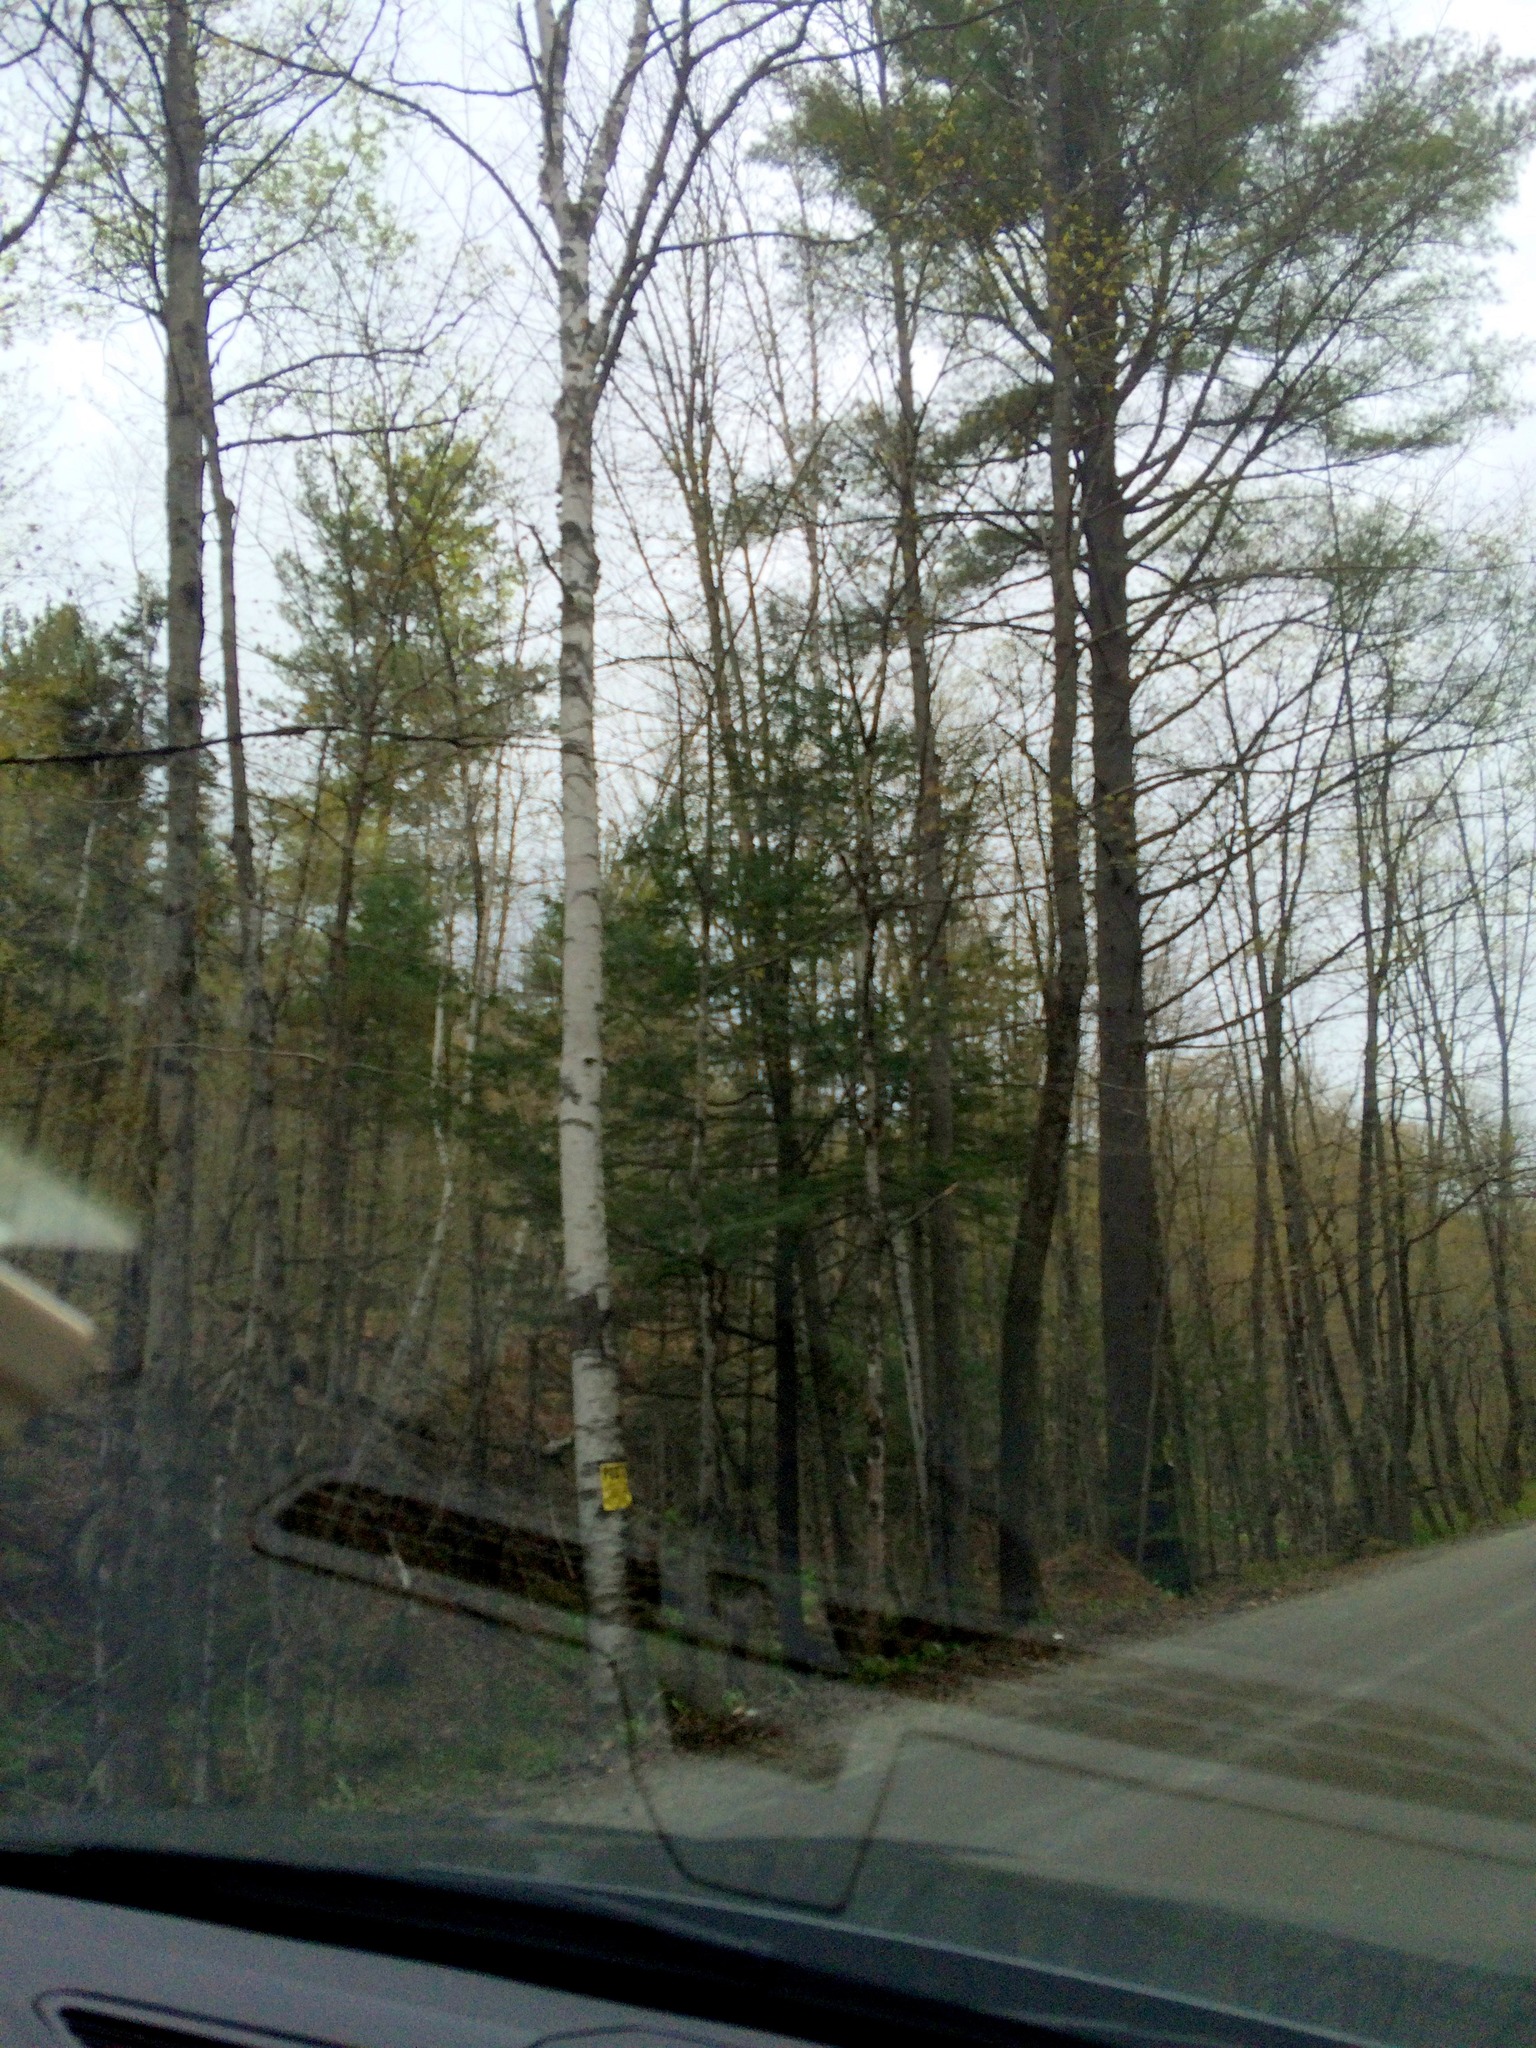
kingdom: Plantae
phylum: Tracheophyta
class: Pinopsida
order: Pinales
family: Pinaceae
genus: Pinus
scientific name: Pinus strobus
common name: Weymouth pine
